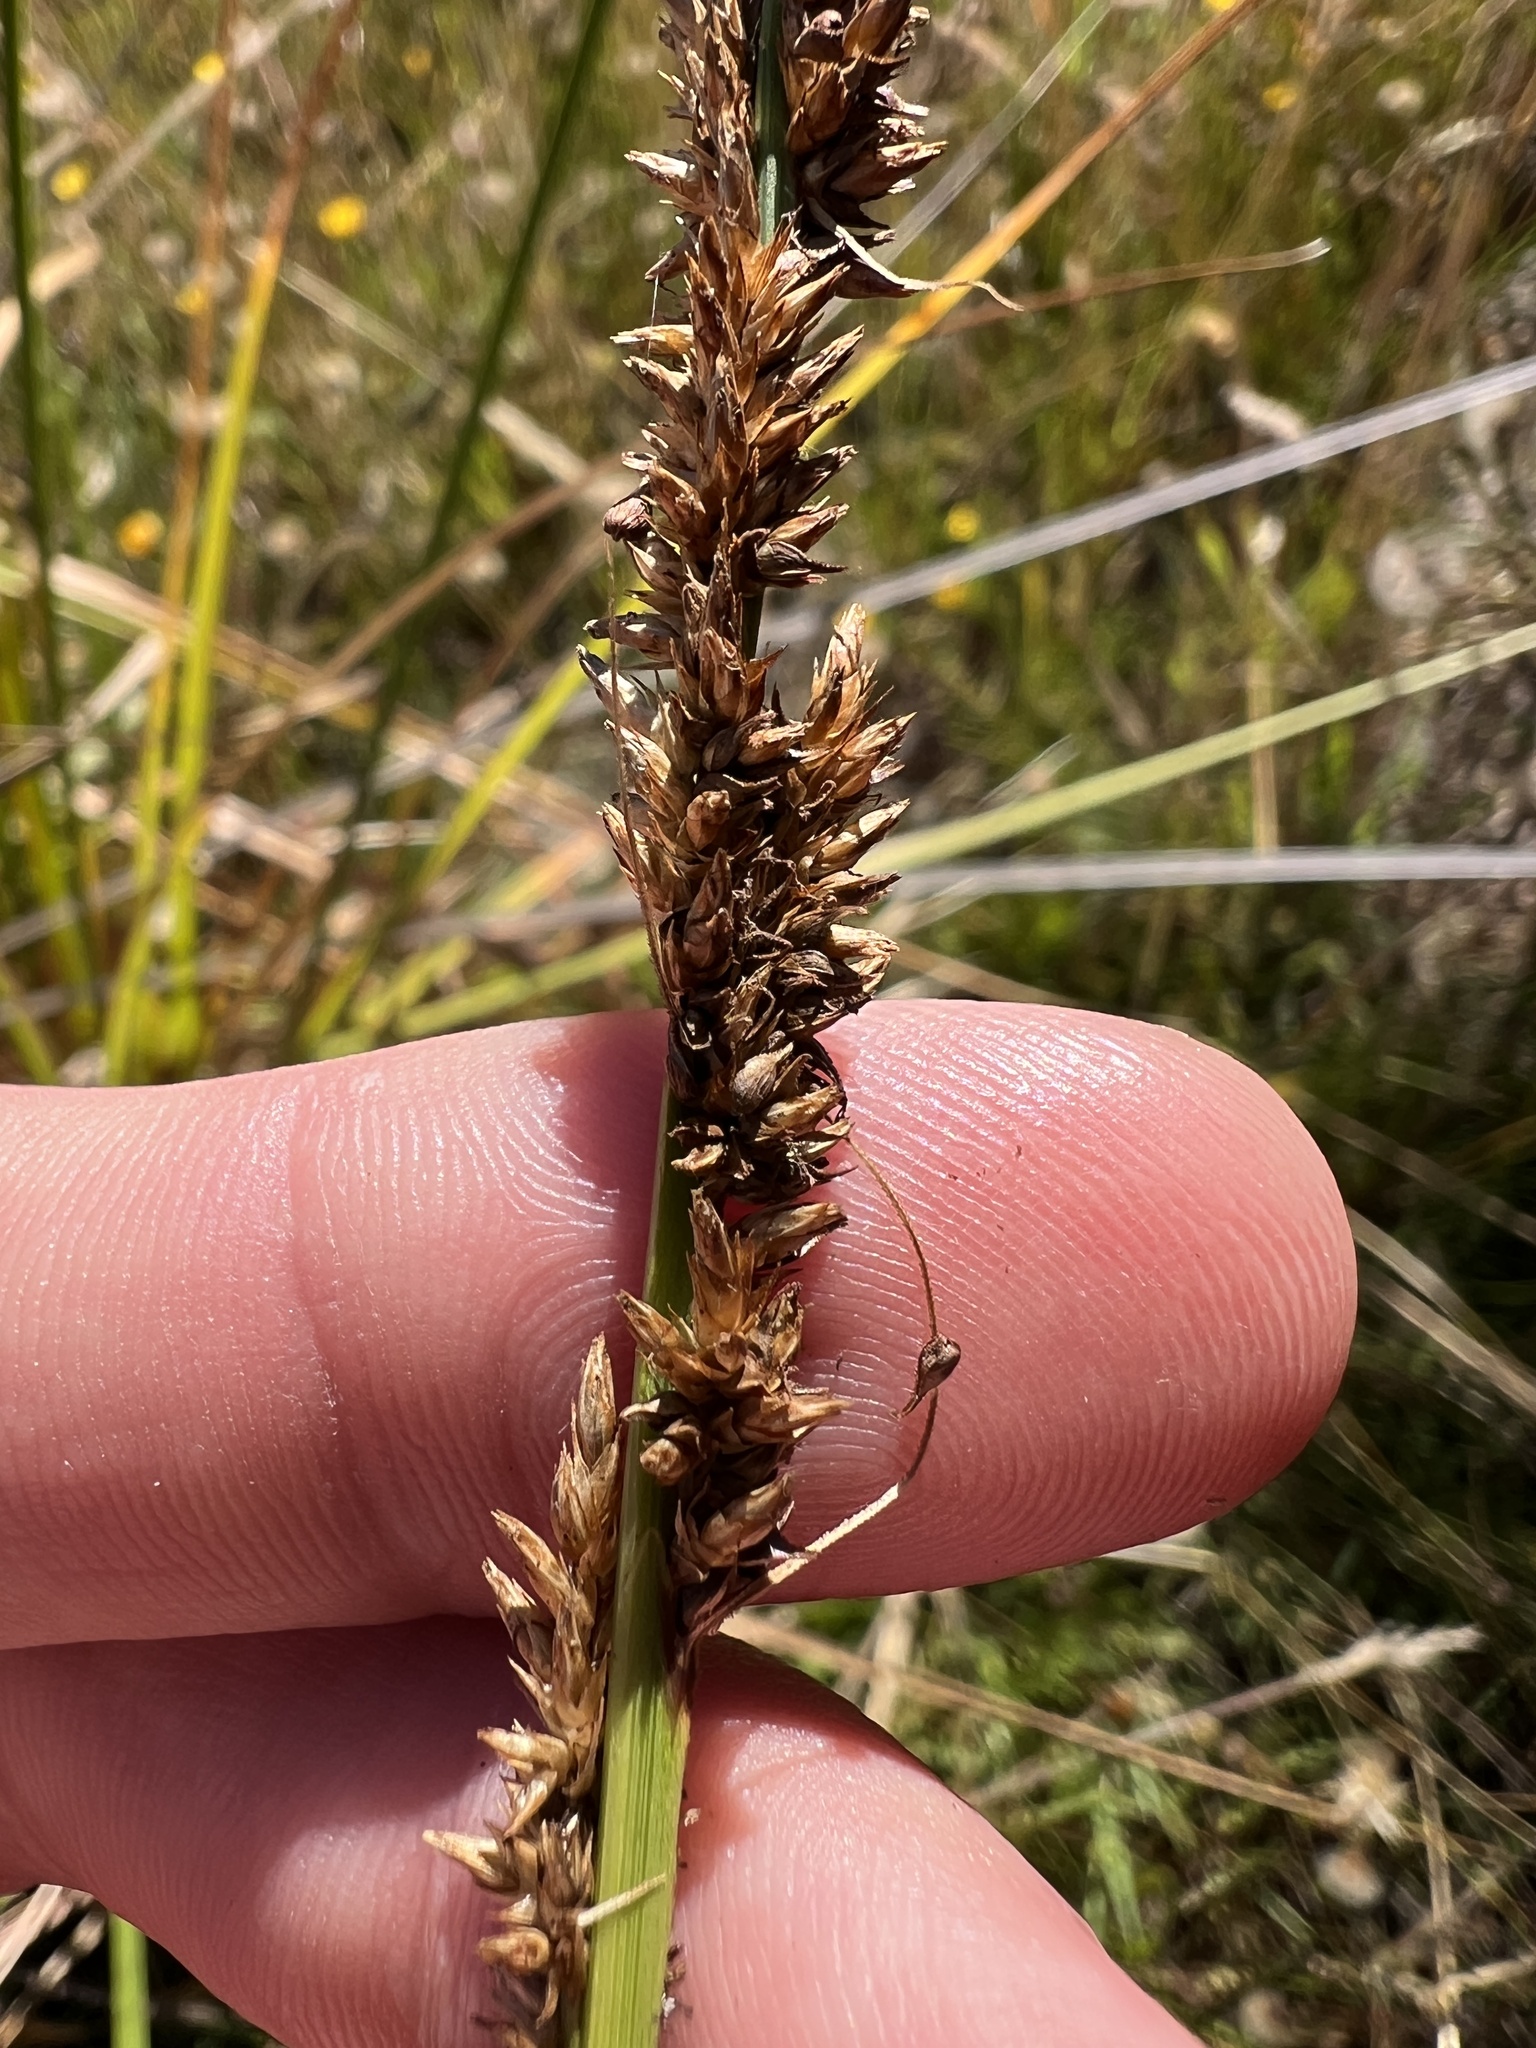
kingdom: Plantae
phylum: Tracheophyta
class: Liliopsida
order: Poales
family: Cyperaceae
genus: Carex
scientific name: Carex appressa
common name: Tussock sedge
